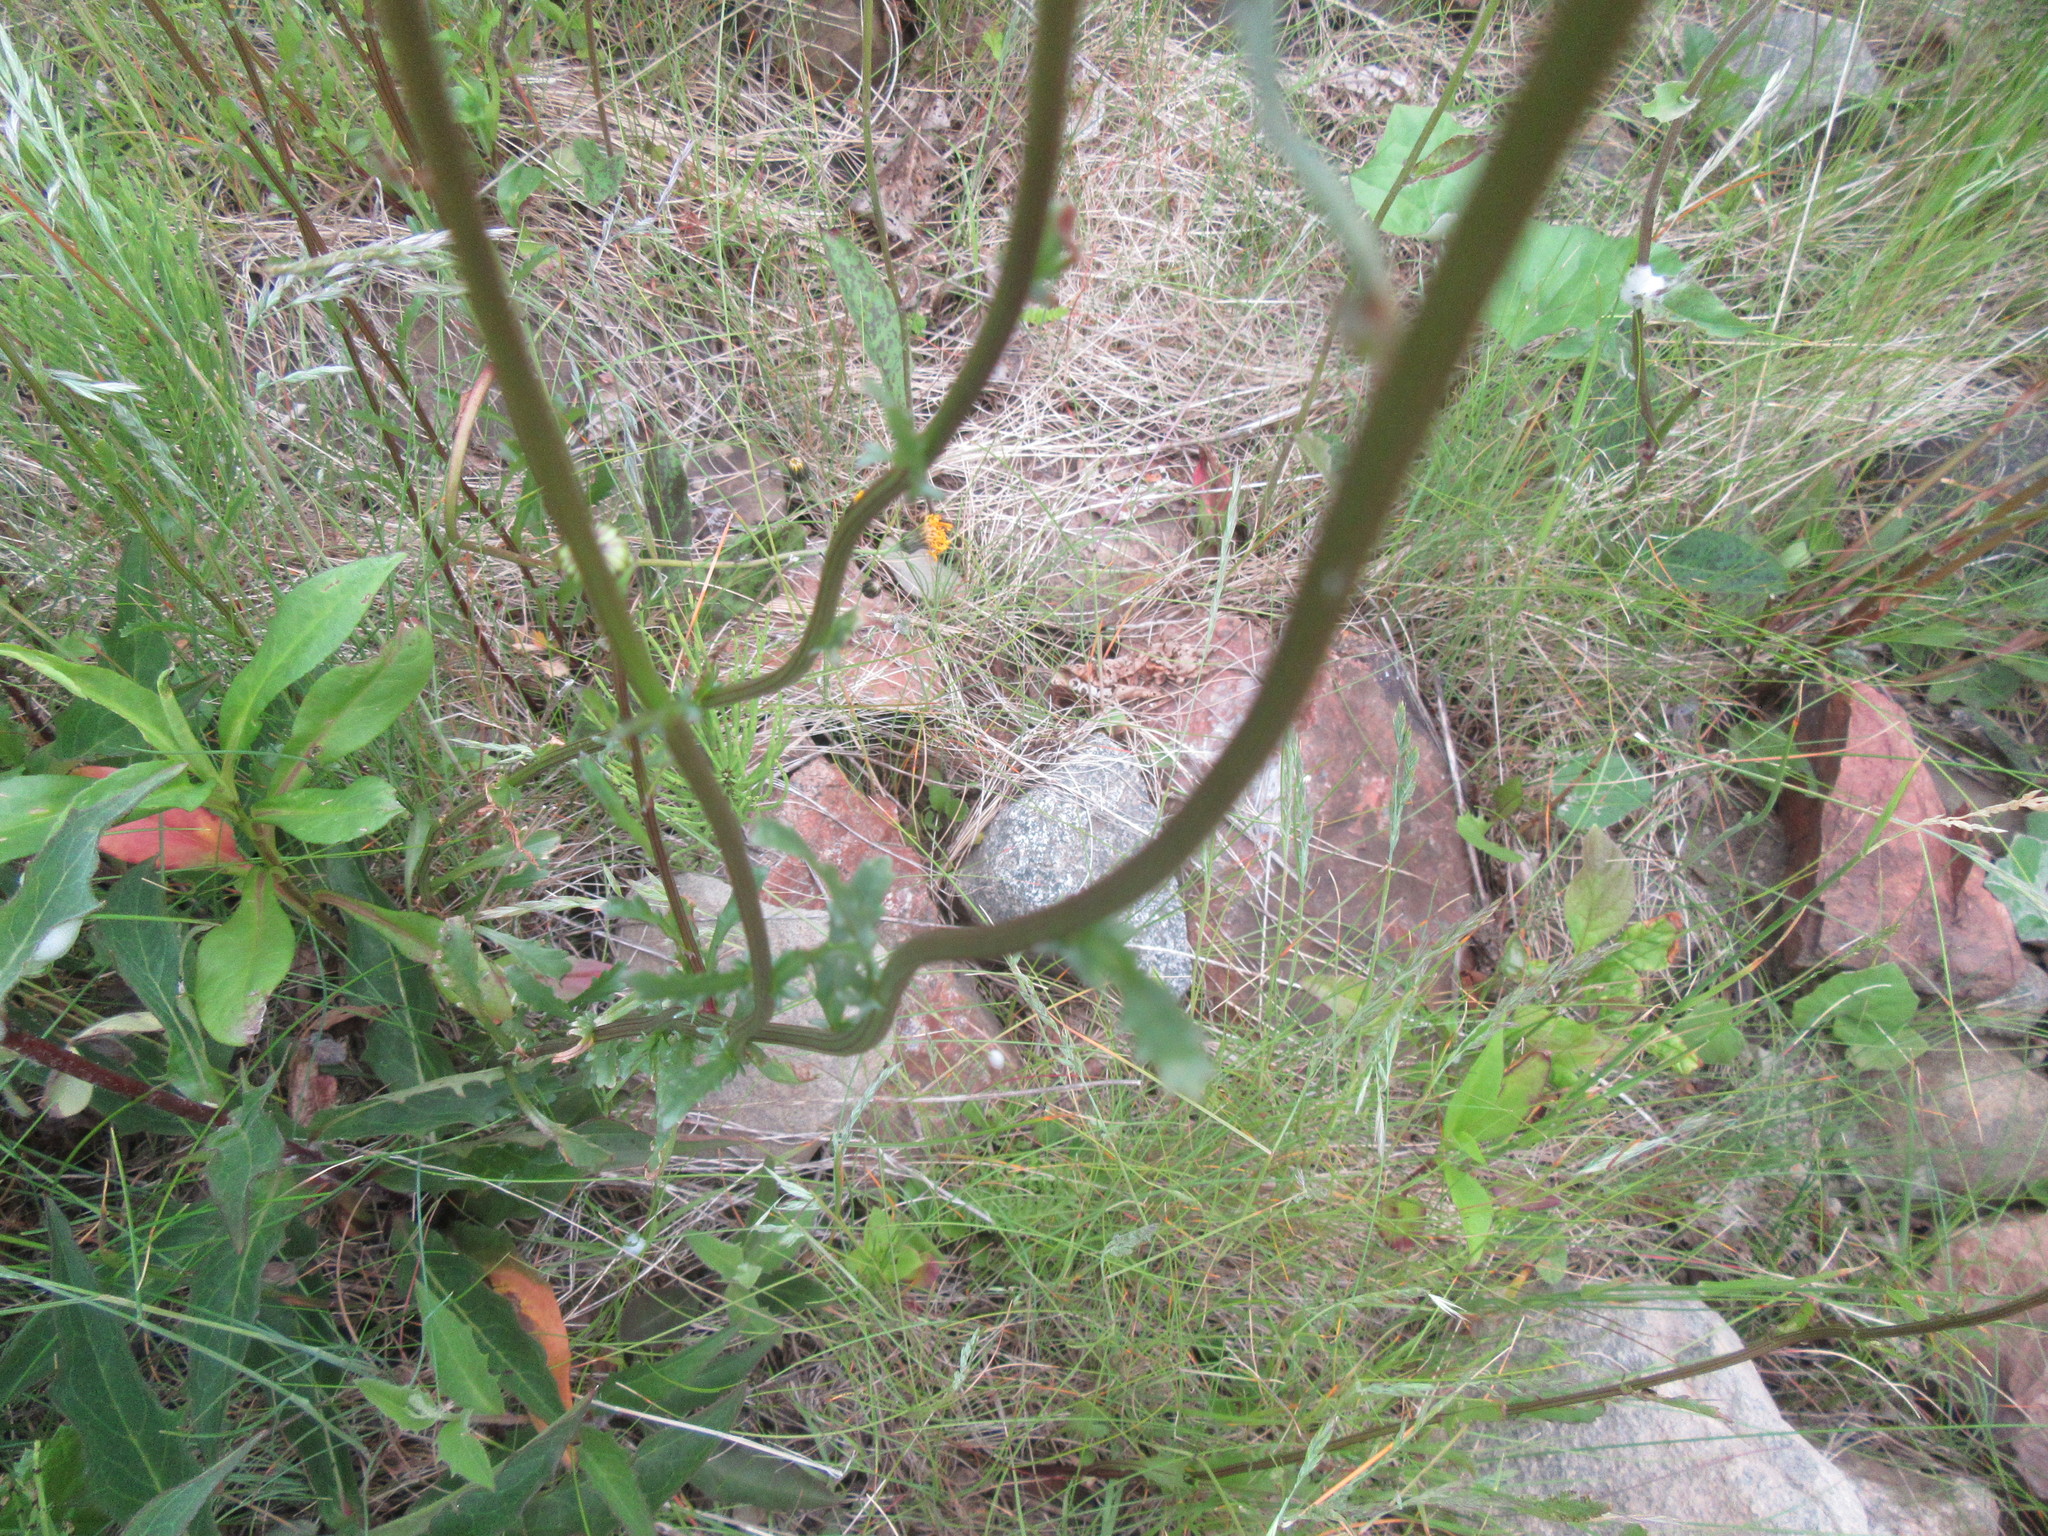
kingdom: Plantae
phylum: Tracheophyta
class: Magnoliopsida
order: Asterales
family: Asteraceae
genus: Leucanthemum
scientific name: Leucanthemum vulgare
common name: Oxeye daisy
